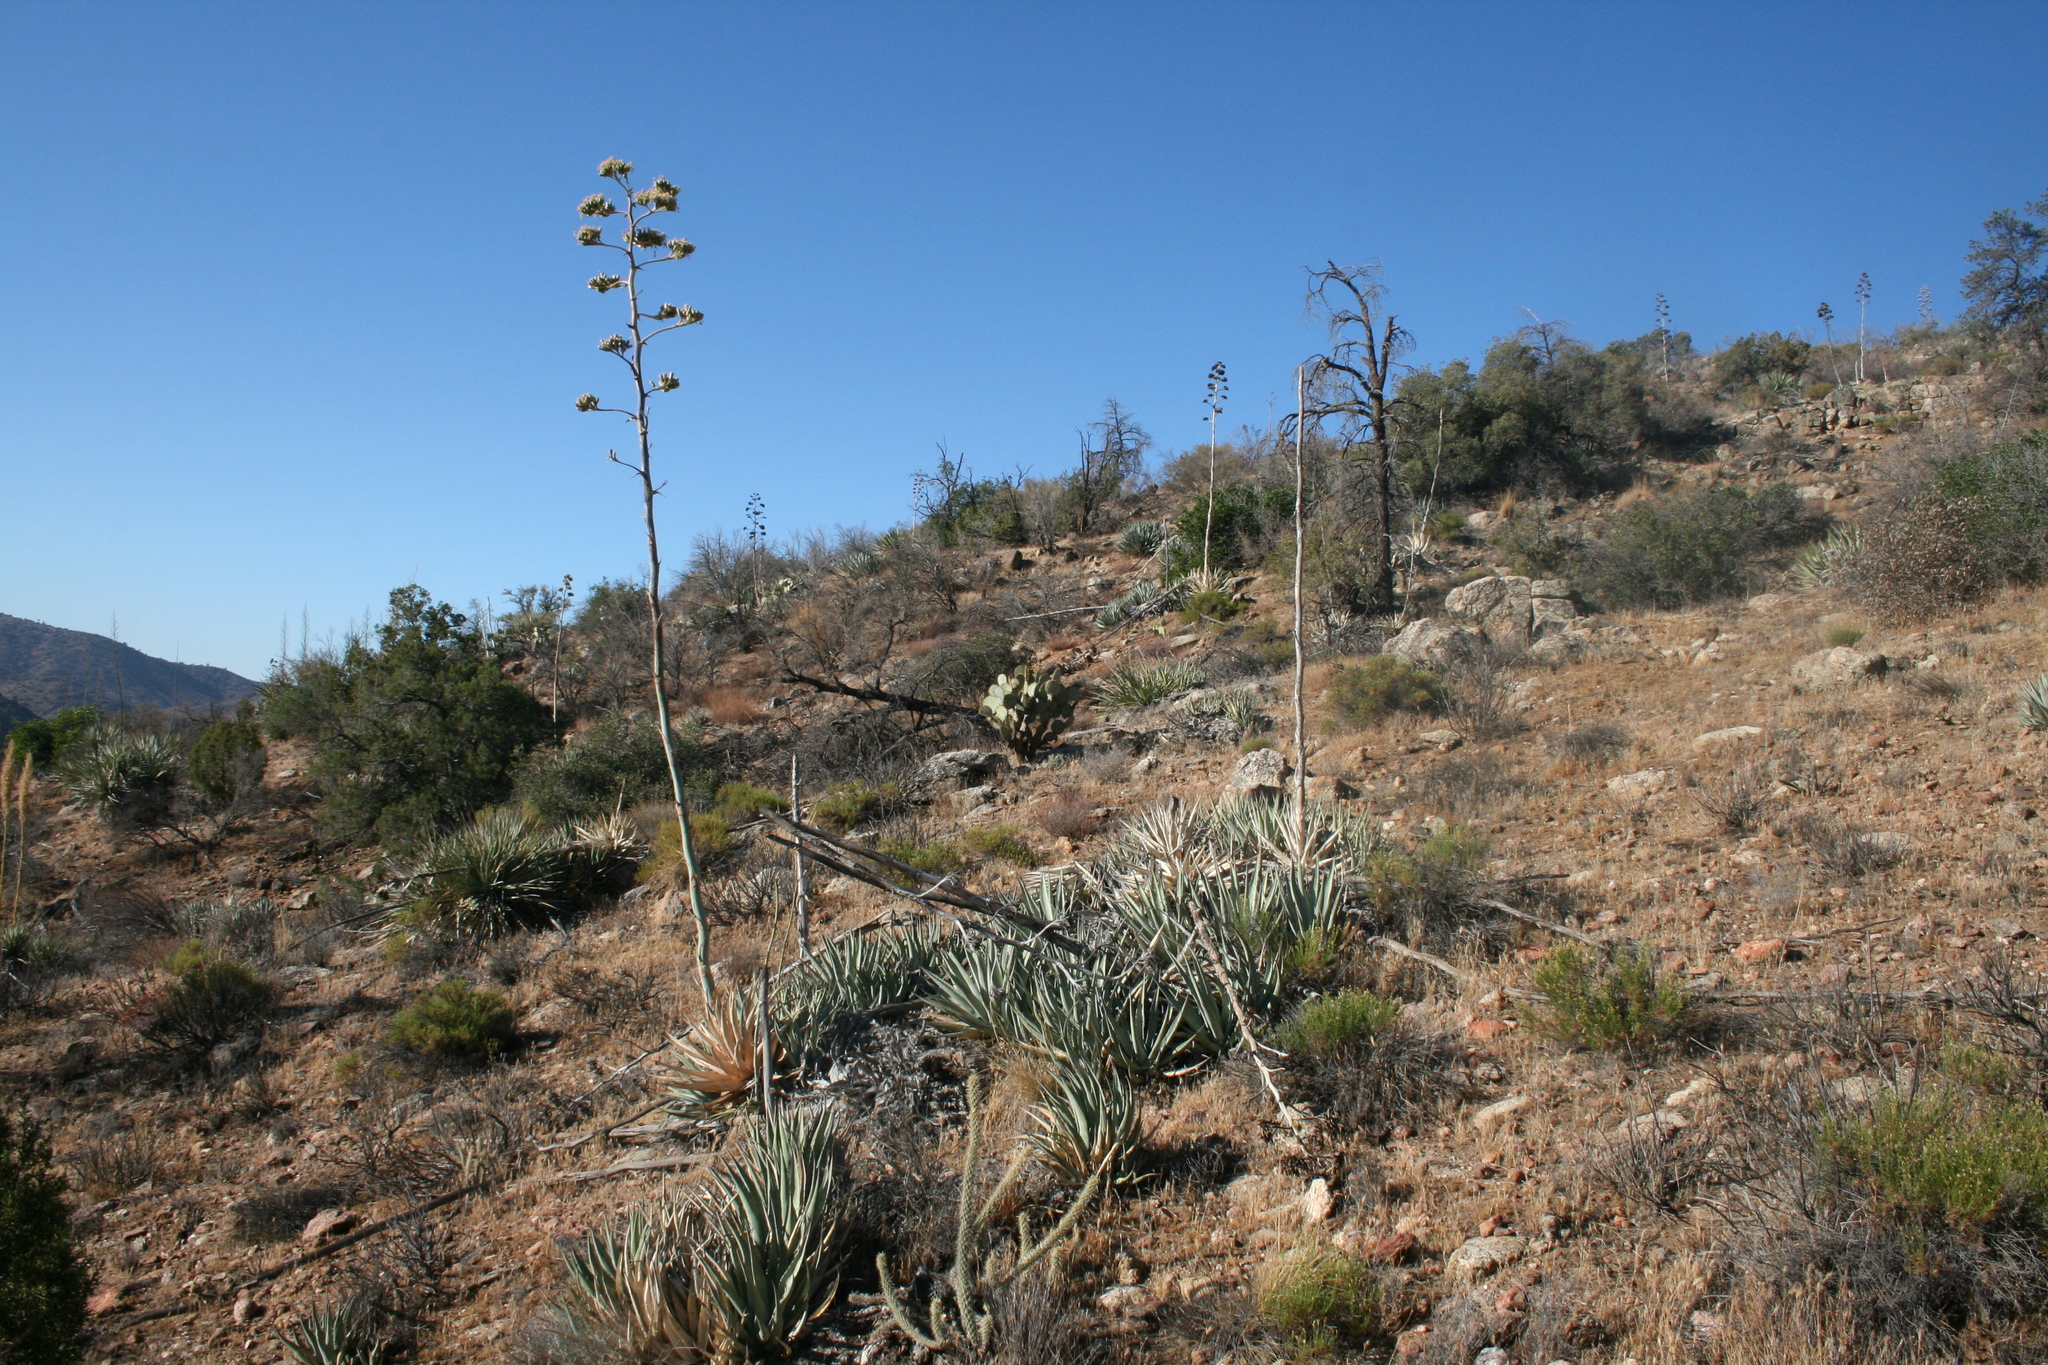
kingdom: Plantae
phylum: Tracheophyta
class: Liliopsida
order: Asparagales
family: Asparagaceae
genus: Agave
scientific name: Agave deserti
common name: Desert agave
